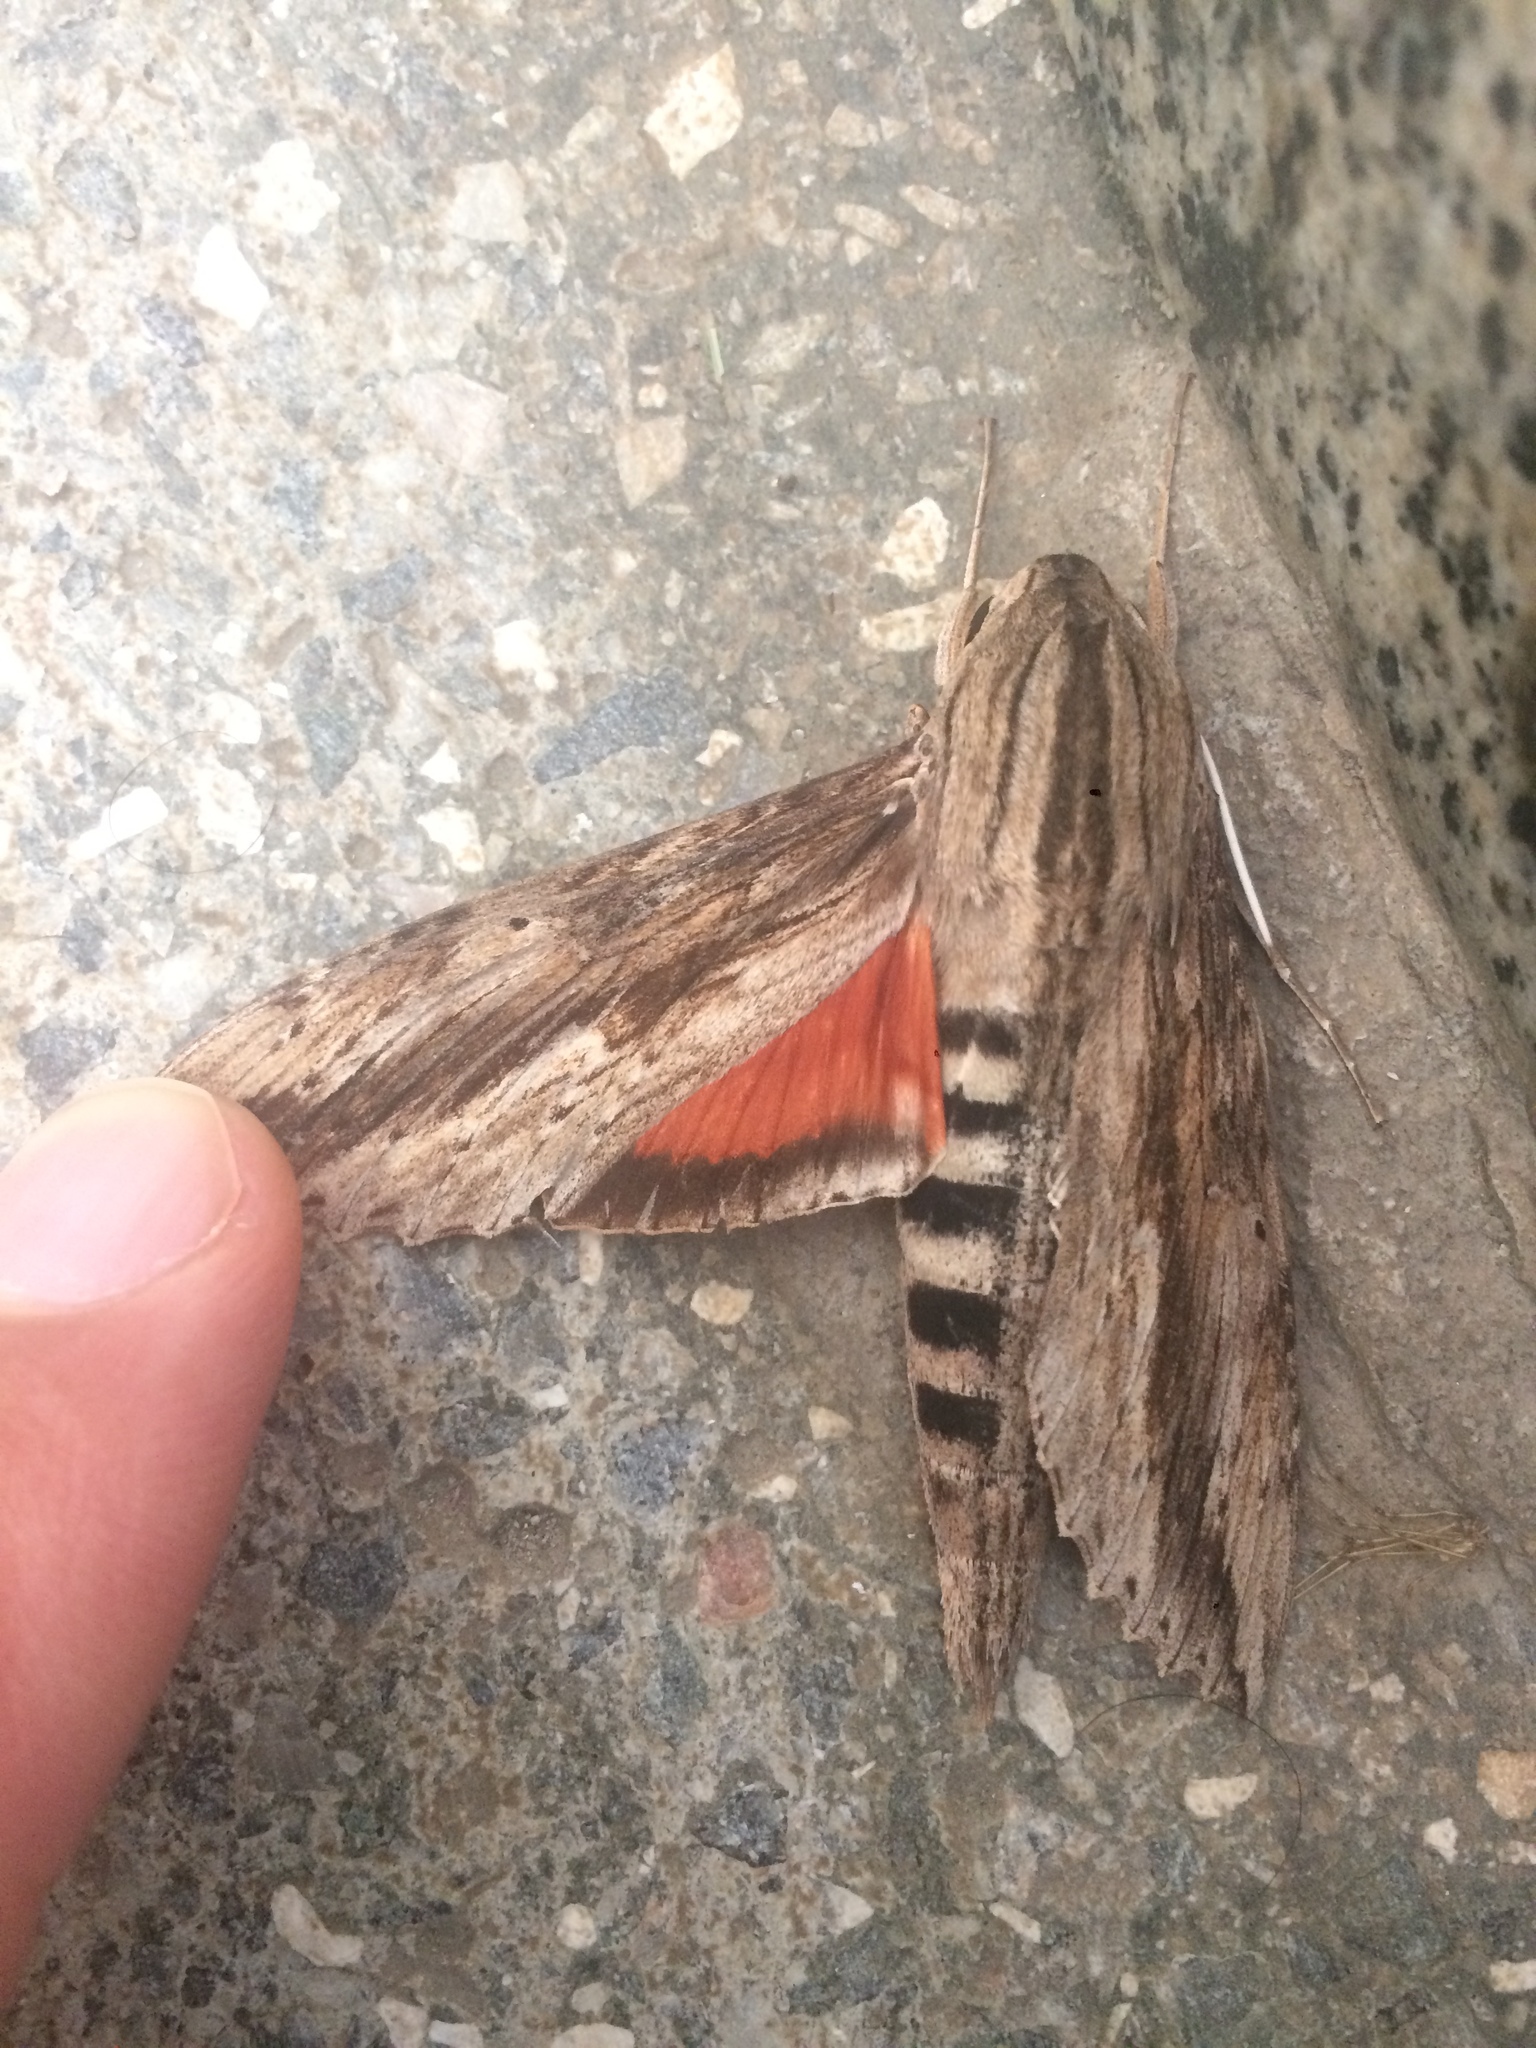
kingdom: Animalia
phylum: Arthropoda
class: Insecta
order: Lepidoptera
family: Sphingidae
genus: Erinnyis
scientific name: Erinnyis ello
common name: Ello sphinx
